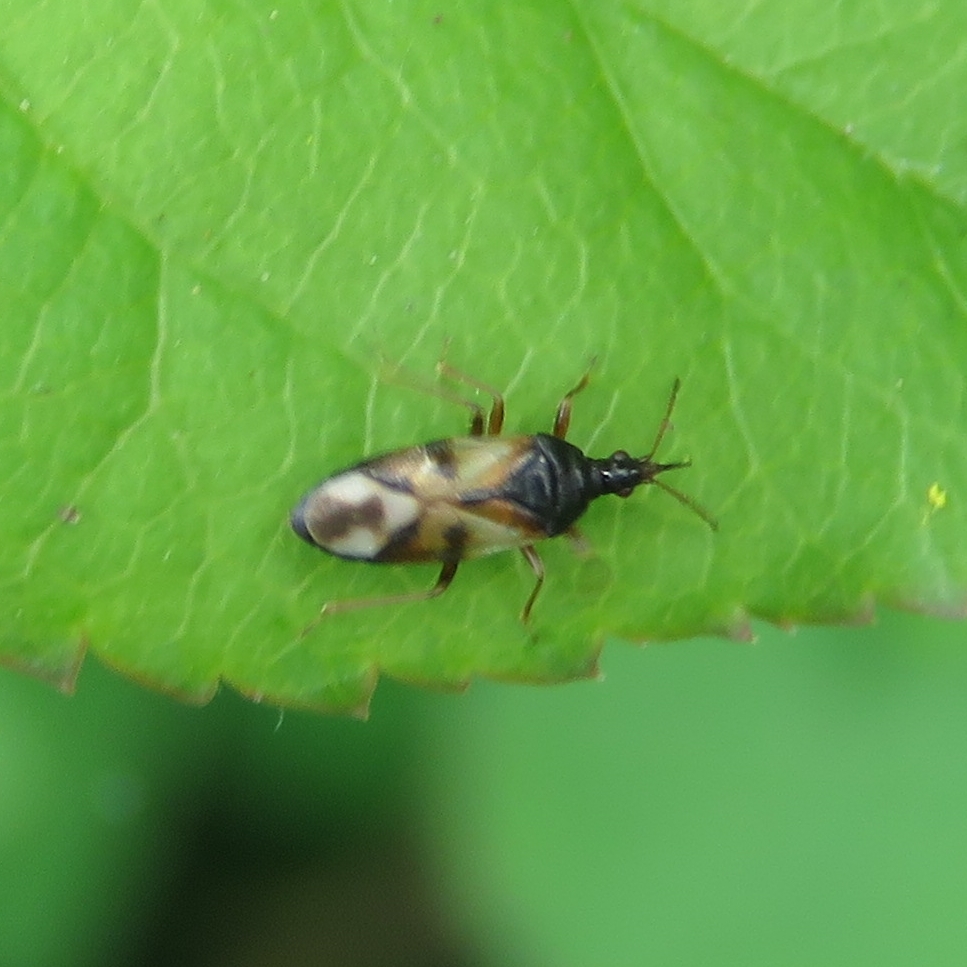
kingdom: Animalia
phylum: Arthropoda
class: Insecta
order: Hemiptera
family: Anthocoridae
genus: Anthocoris
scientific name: Anthocoris nemorum
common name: Minute pirate bug
